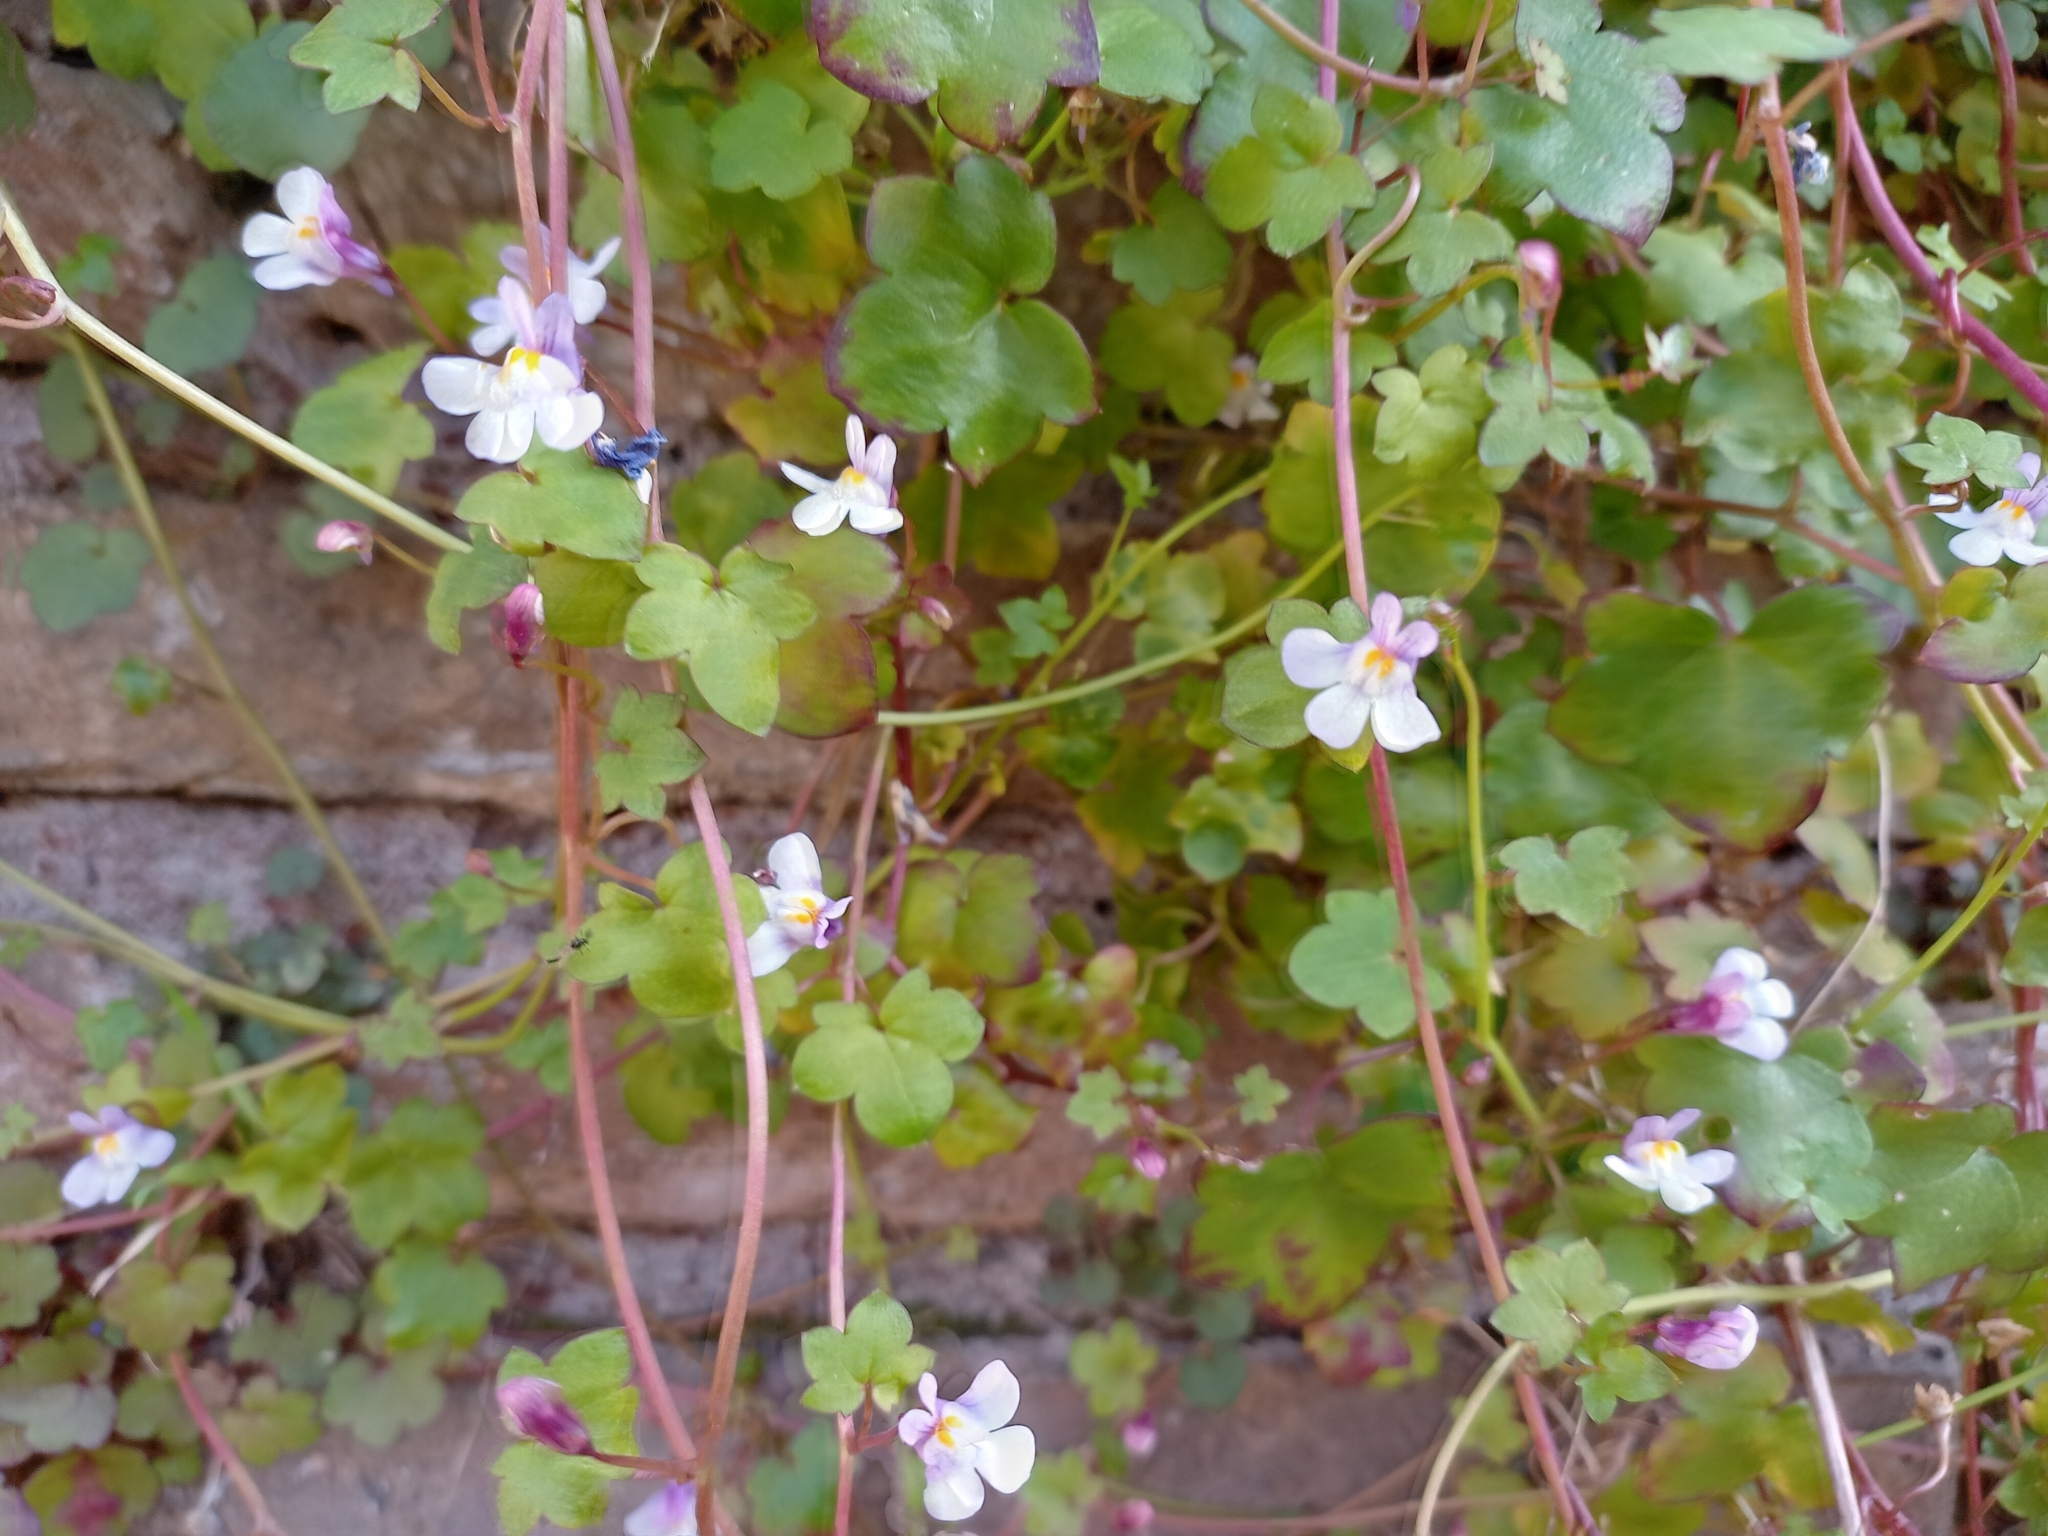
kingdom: Plantae
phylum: Tracheophyta
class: Magnoliopsida
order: Lamiales
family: Plantaginaceae
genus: Cymbalaria
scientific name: Cymbalaria muralis
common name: Ivy-leaved toadflax
